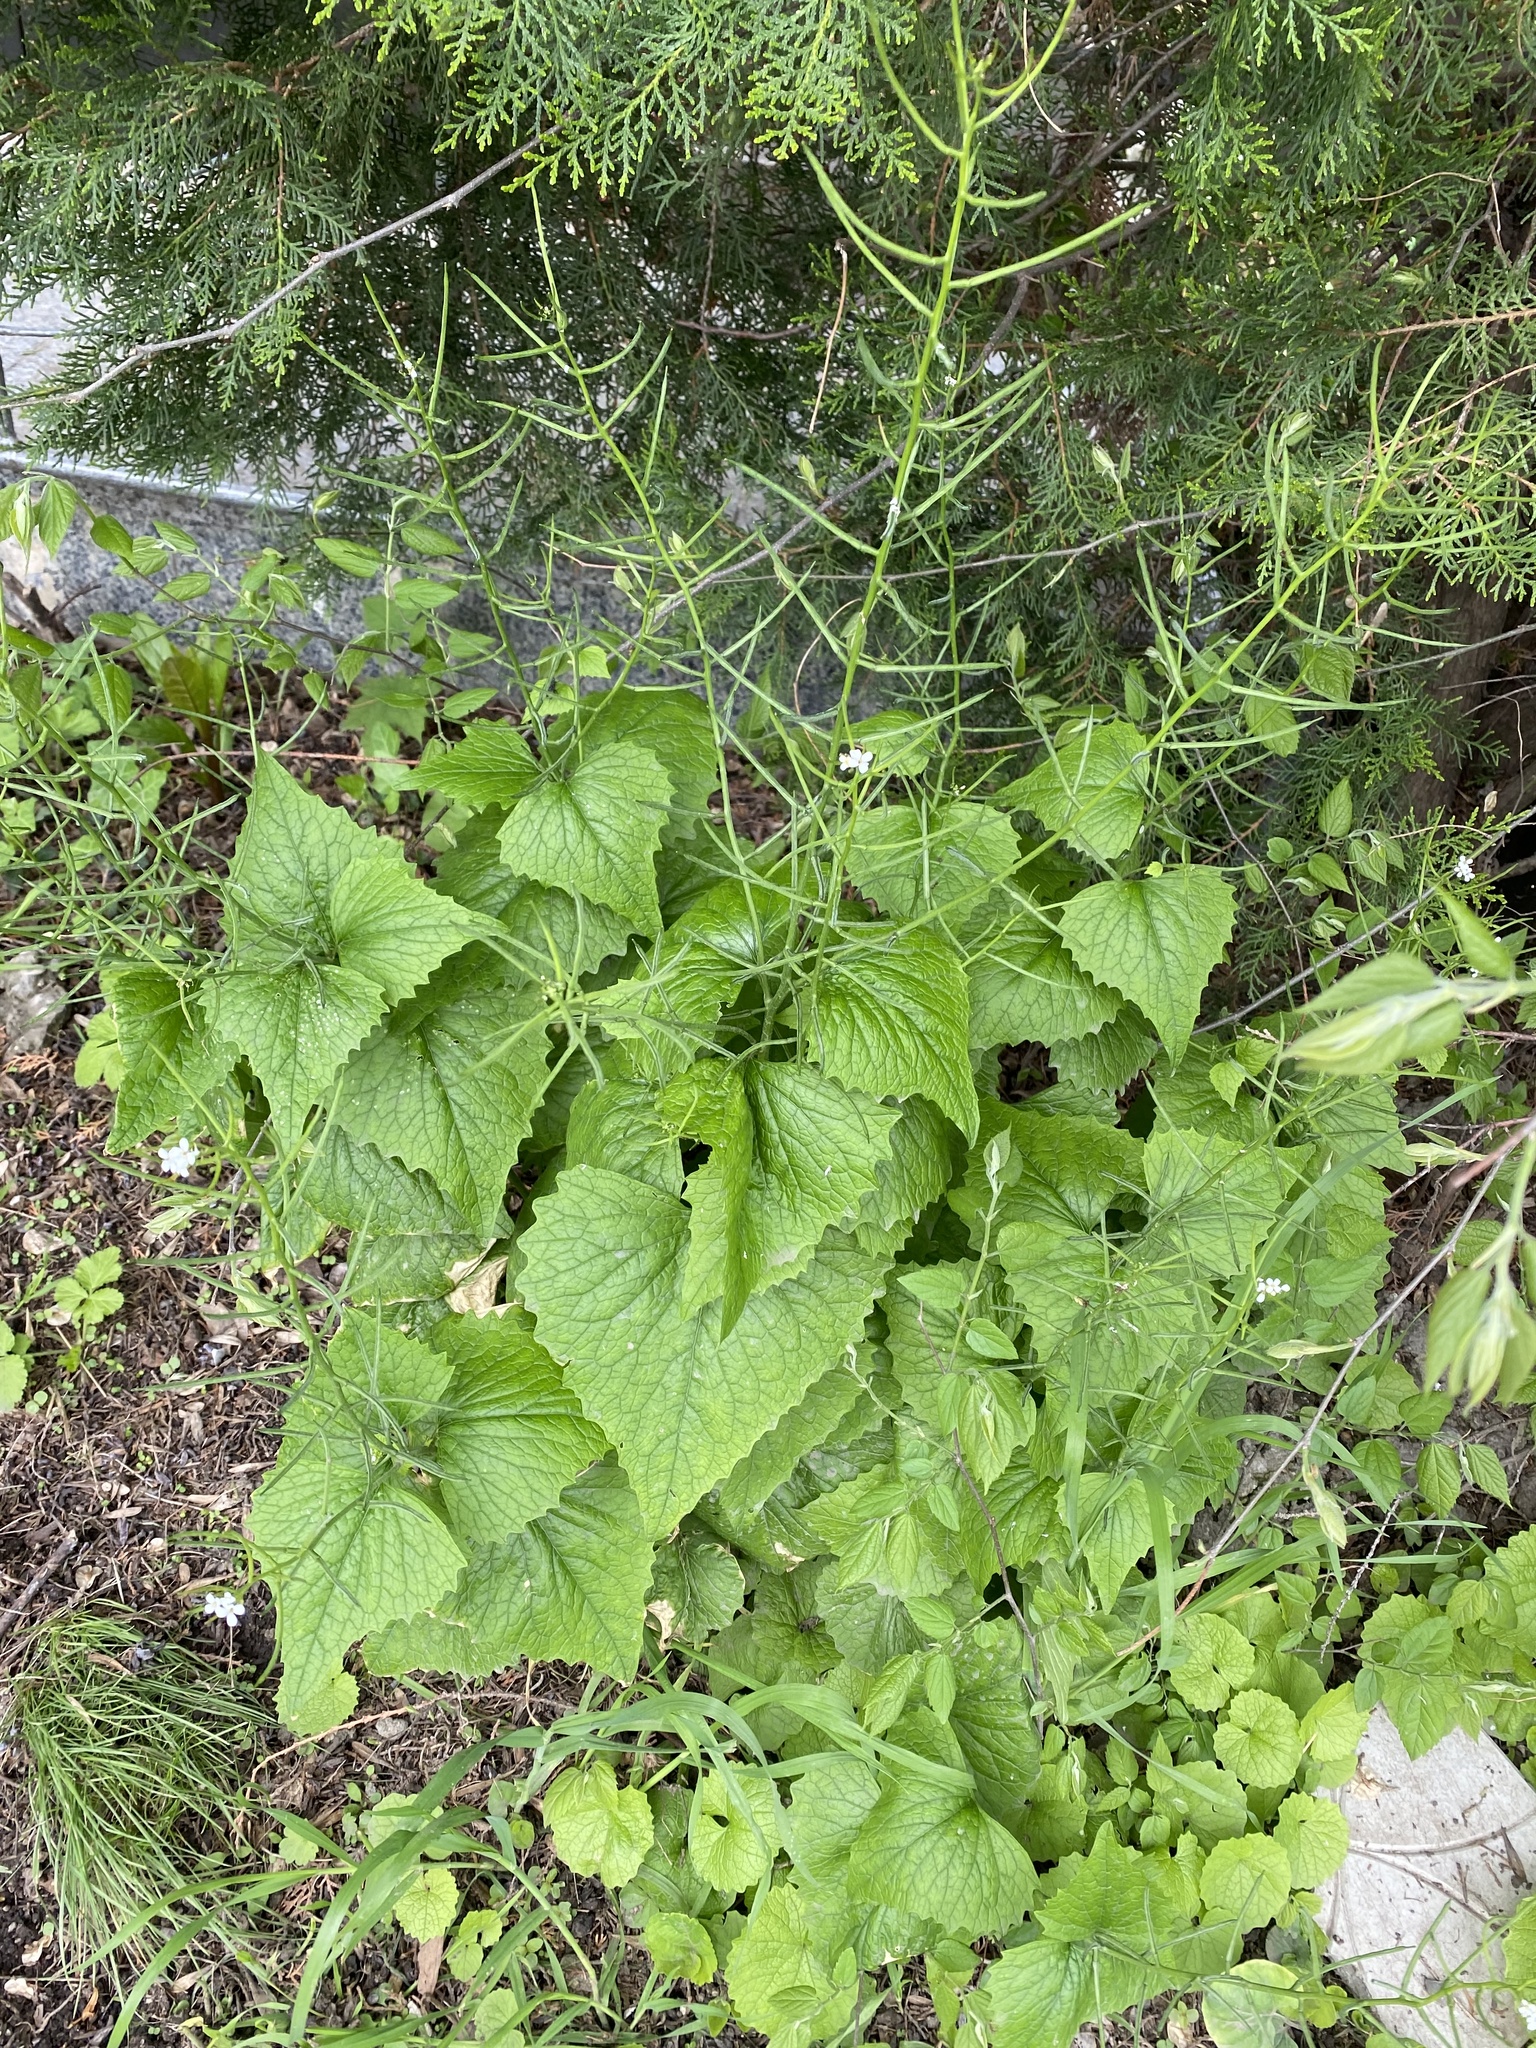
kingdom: Plantae
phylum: Tracheophyta
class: Magnoliopsida
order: Brassicales
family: Brassicaceae
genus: Alliaria
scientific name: Alliaria petiolata
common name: Garlic mustard
